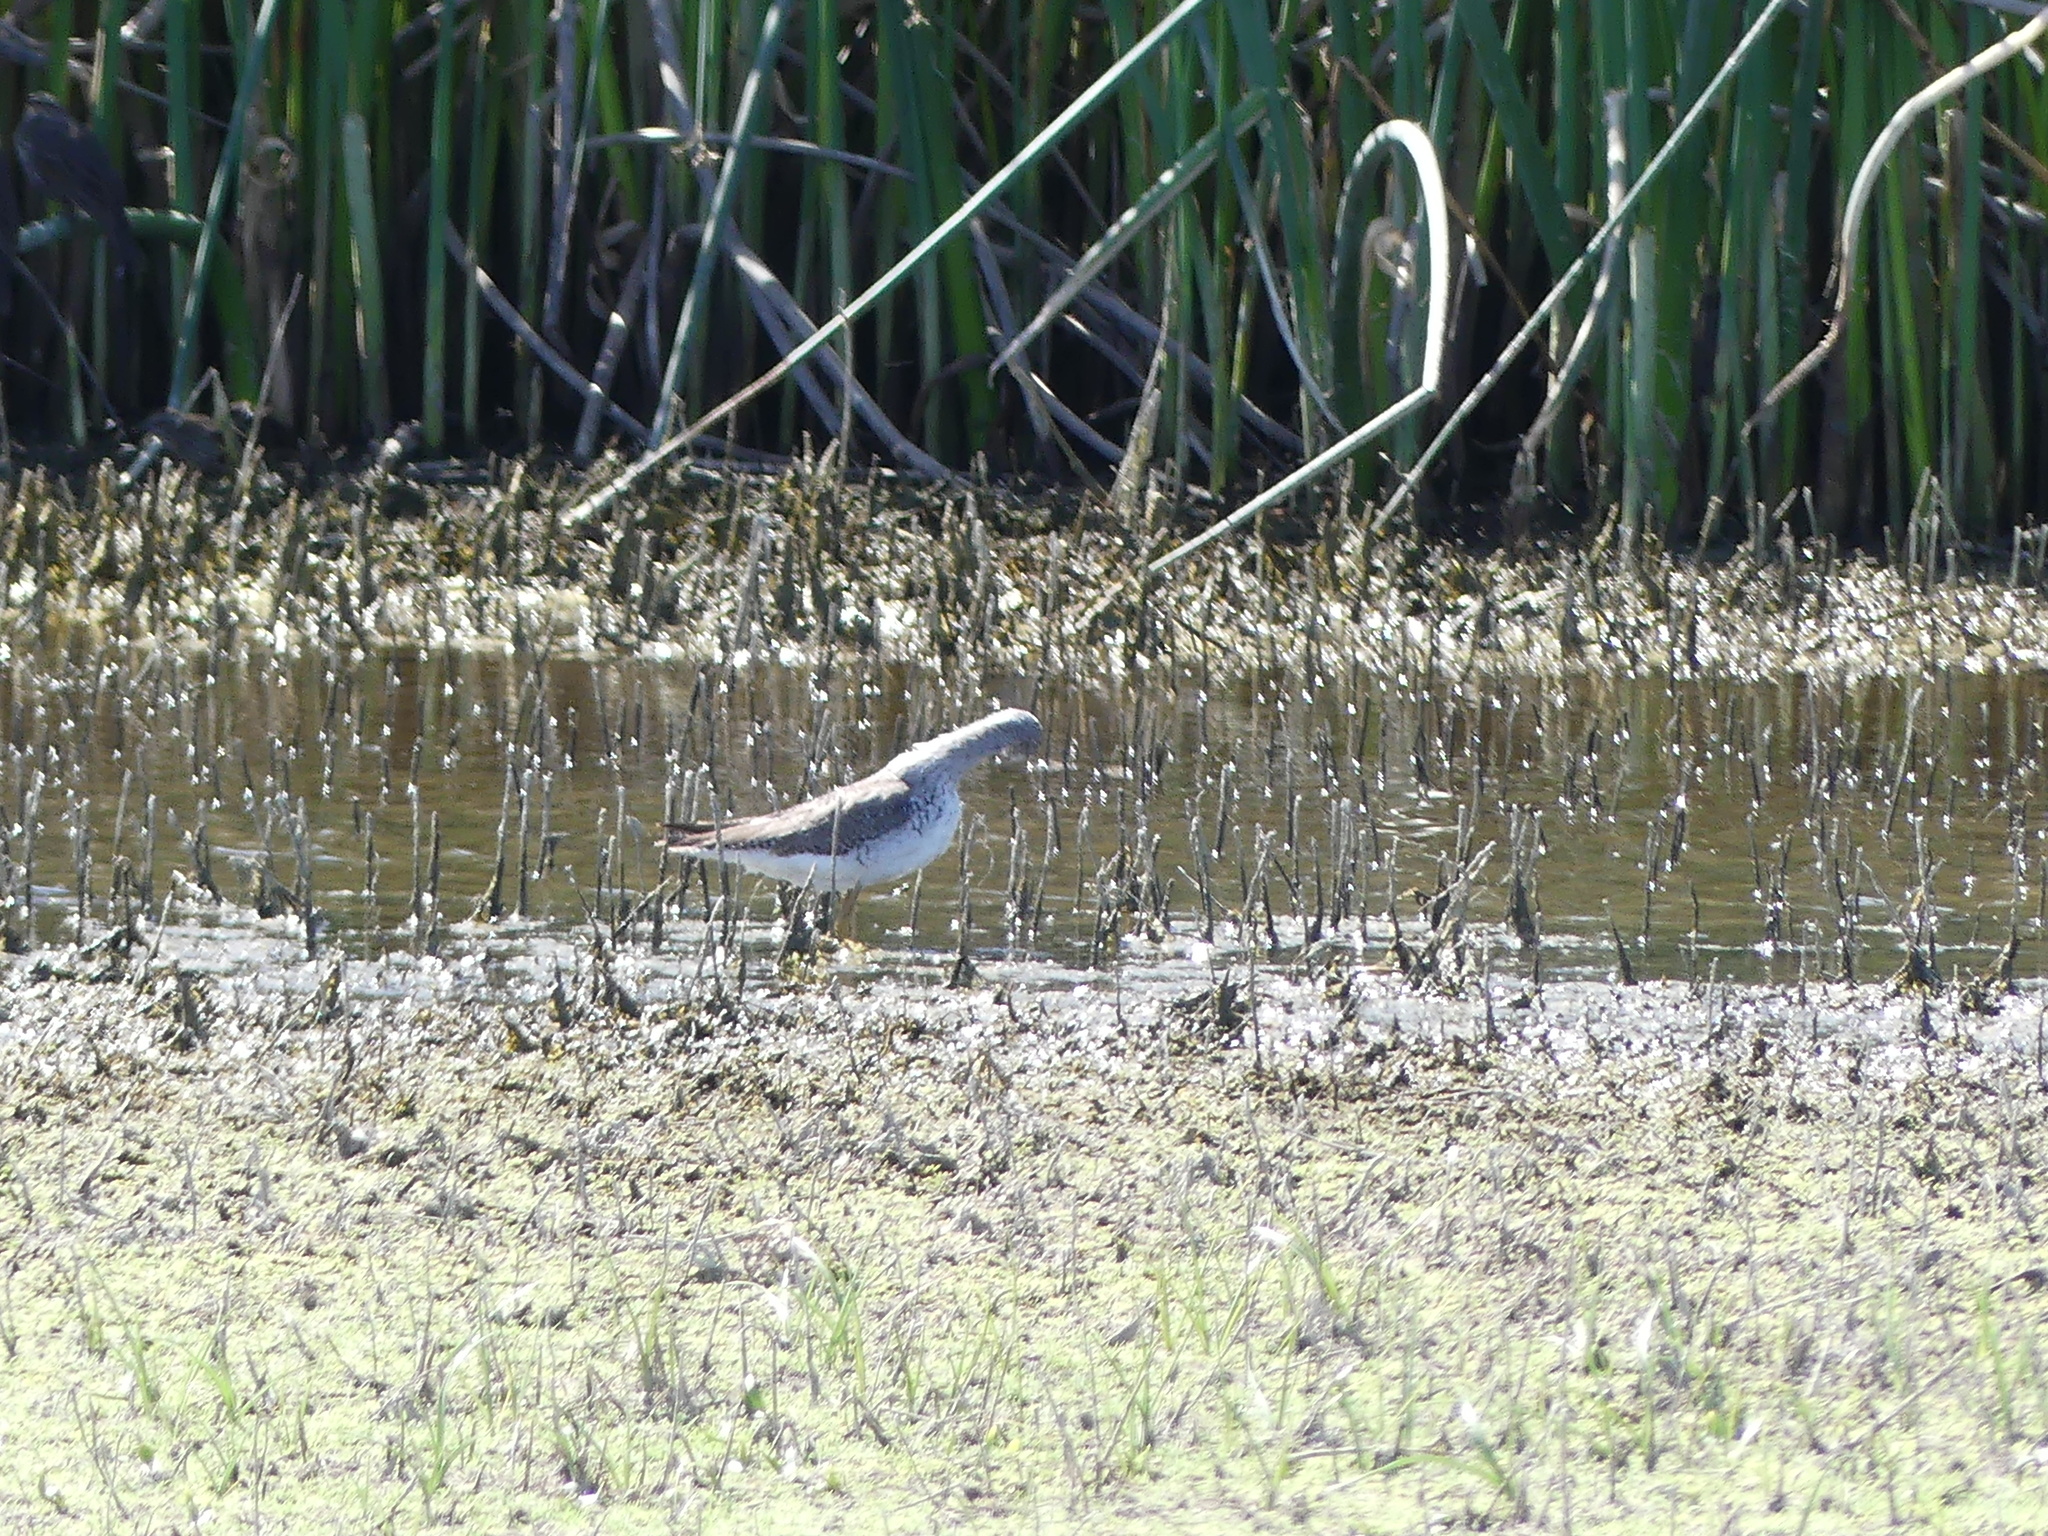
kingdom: Animalia
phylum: Chordata
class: Aves
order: Charadriiformes
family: Scolopacidae
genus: Tringa
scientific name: Tringa melanoleuca
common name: Greater yellowlegs
